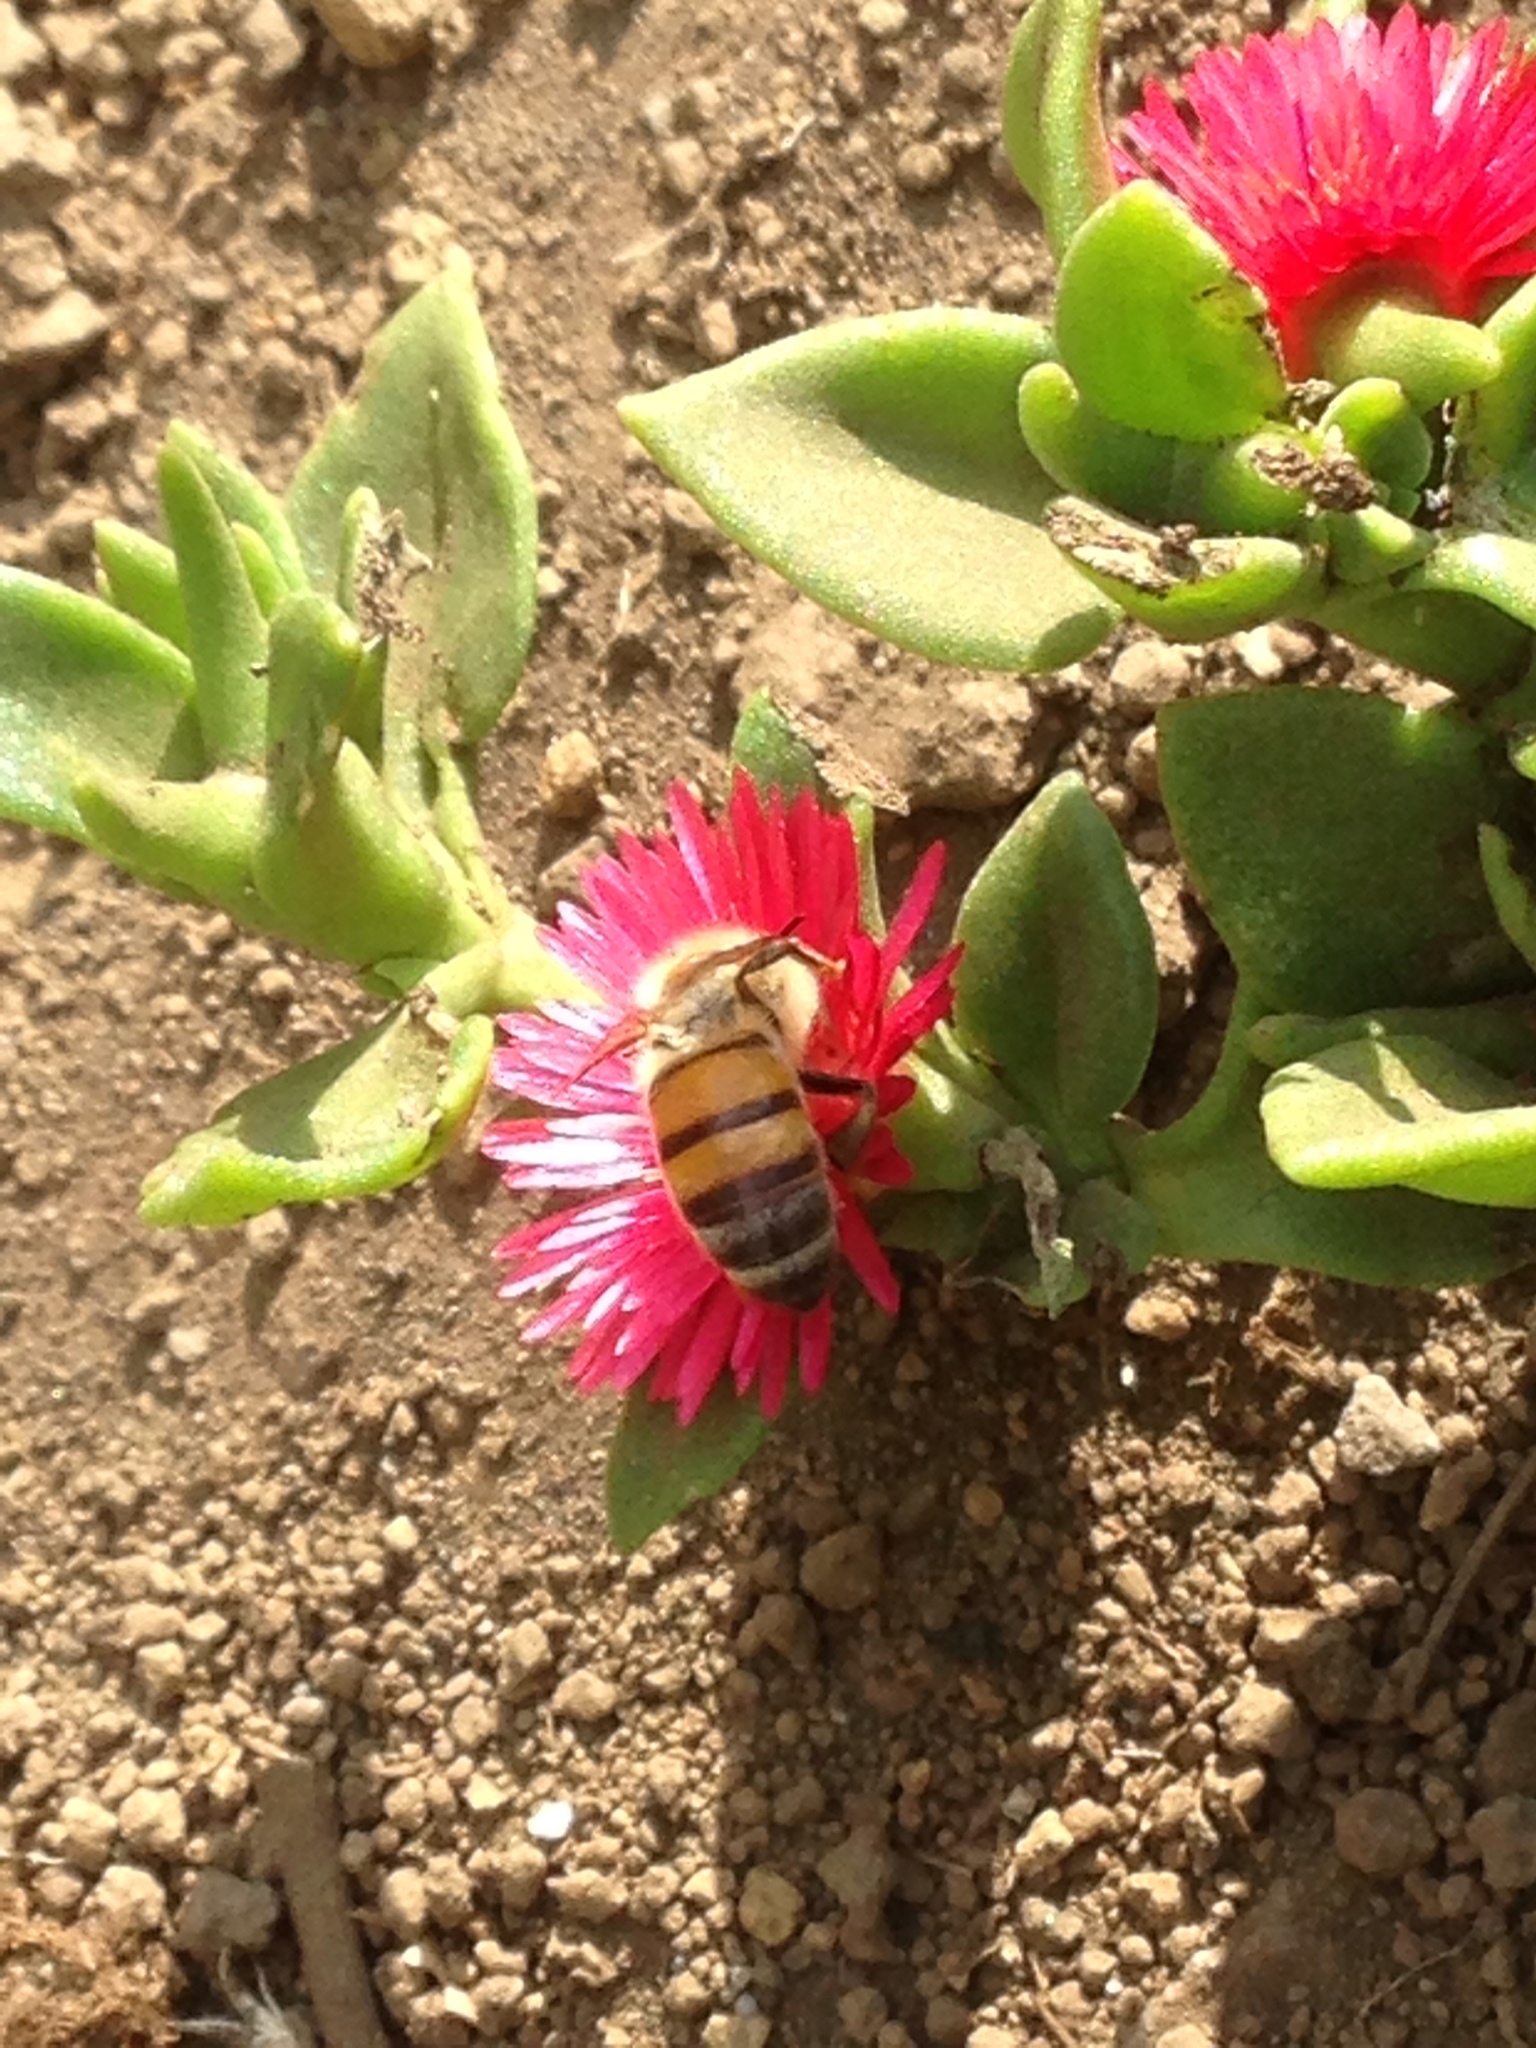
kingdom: Animalia
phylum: Arthropoda
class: Insecta
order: Hymenoptera
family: Apidae
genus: Apis
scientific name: Apis mellifera
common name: Honey bee
